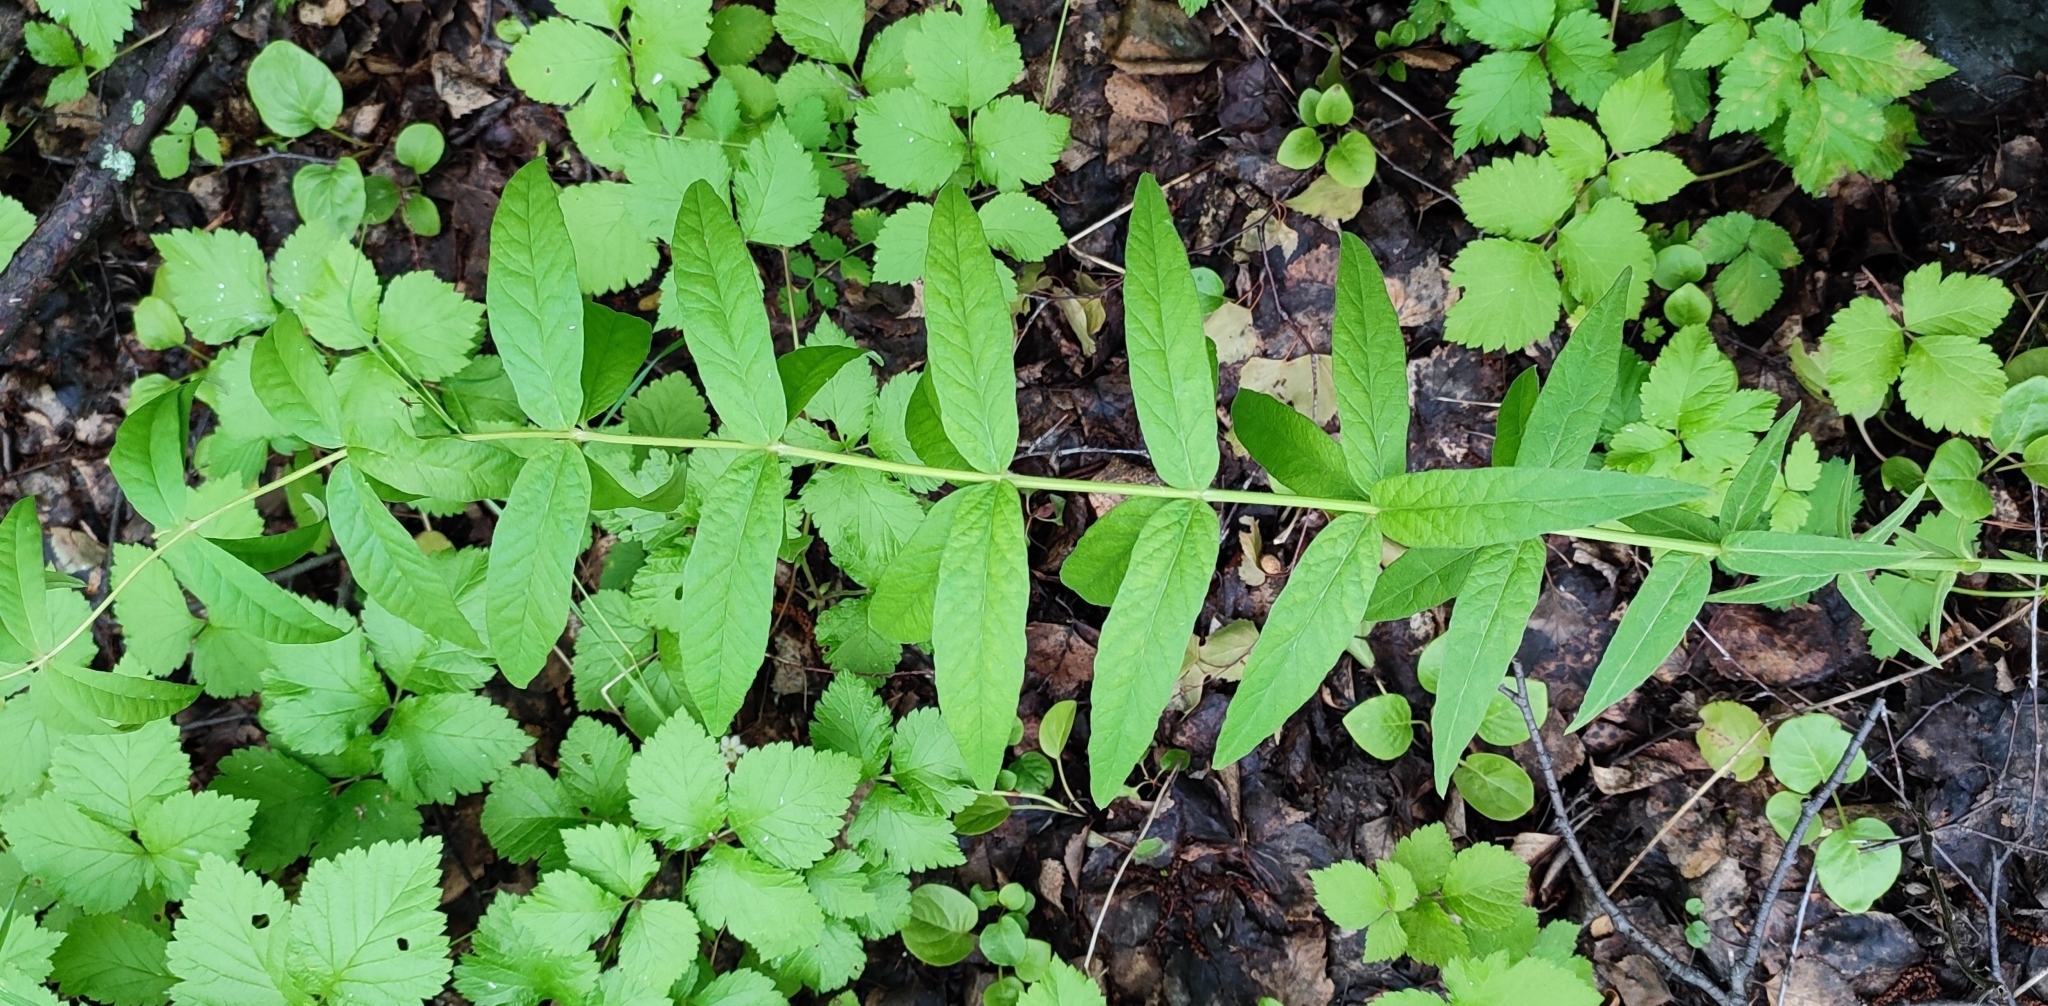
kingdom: Plantae
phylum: Tracheophyta
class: Magnoliopsida
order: Ericales
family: Primulaceae
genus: Lysimachia
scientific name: Lysimachia vulgaris
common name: Yellow loosestrife
